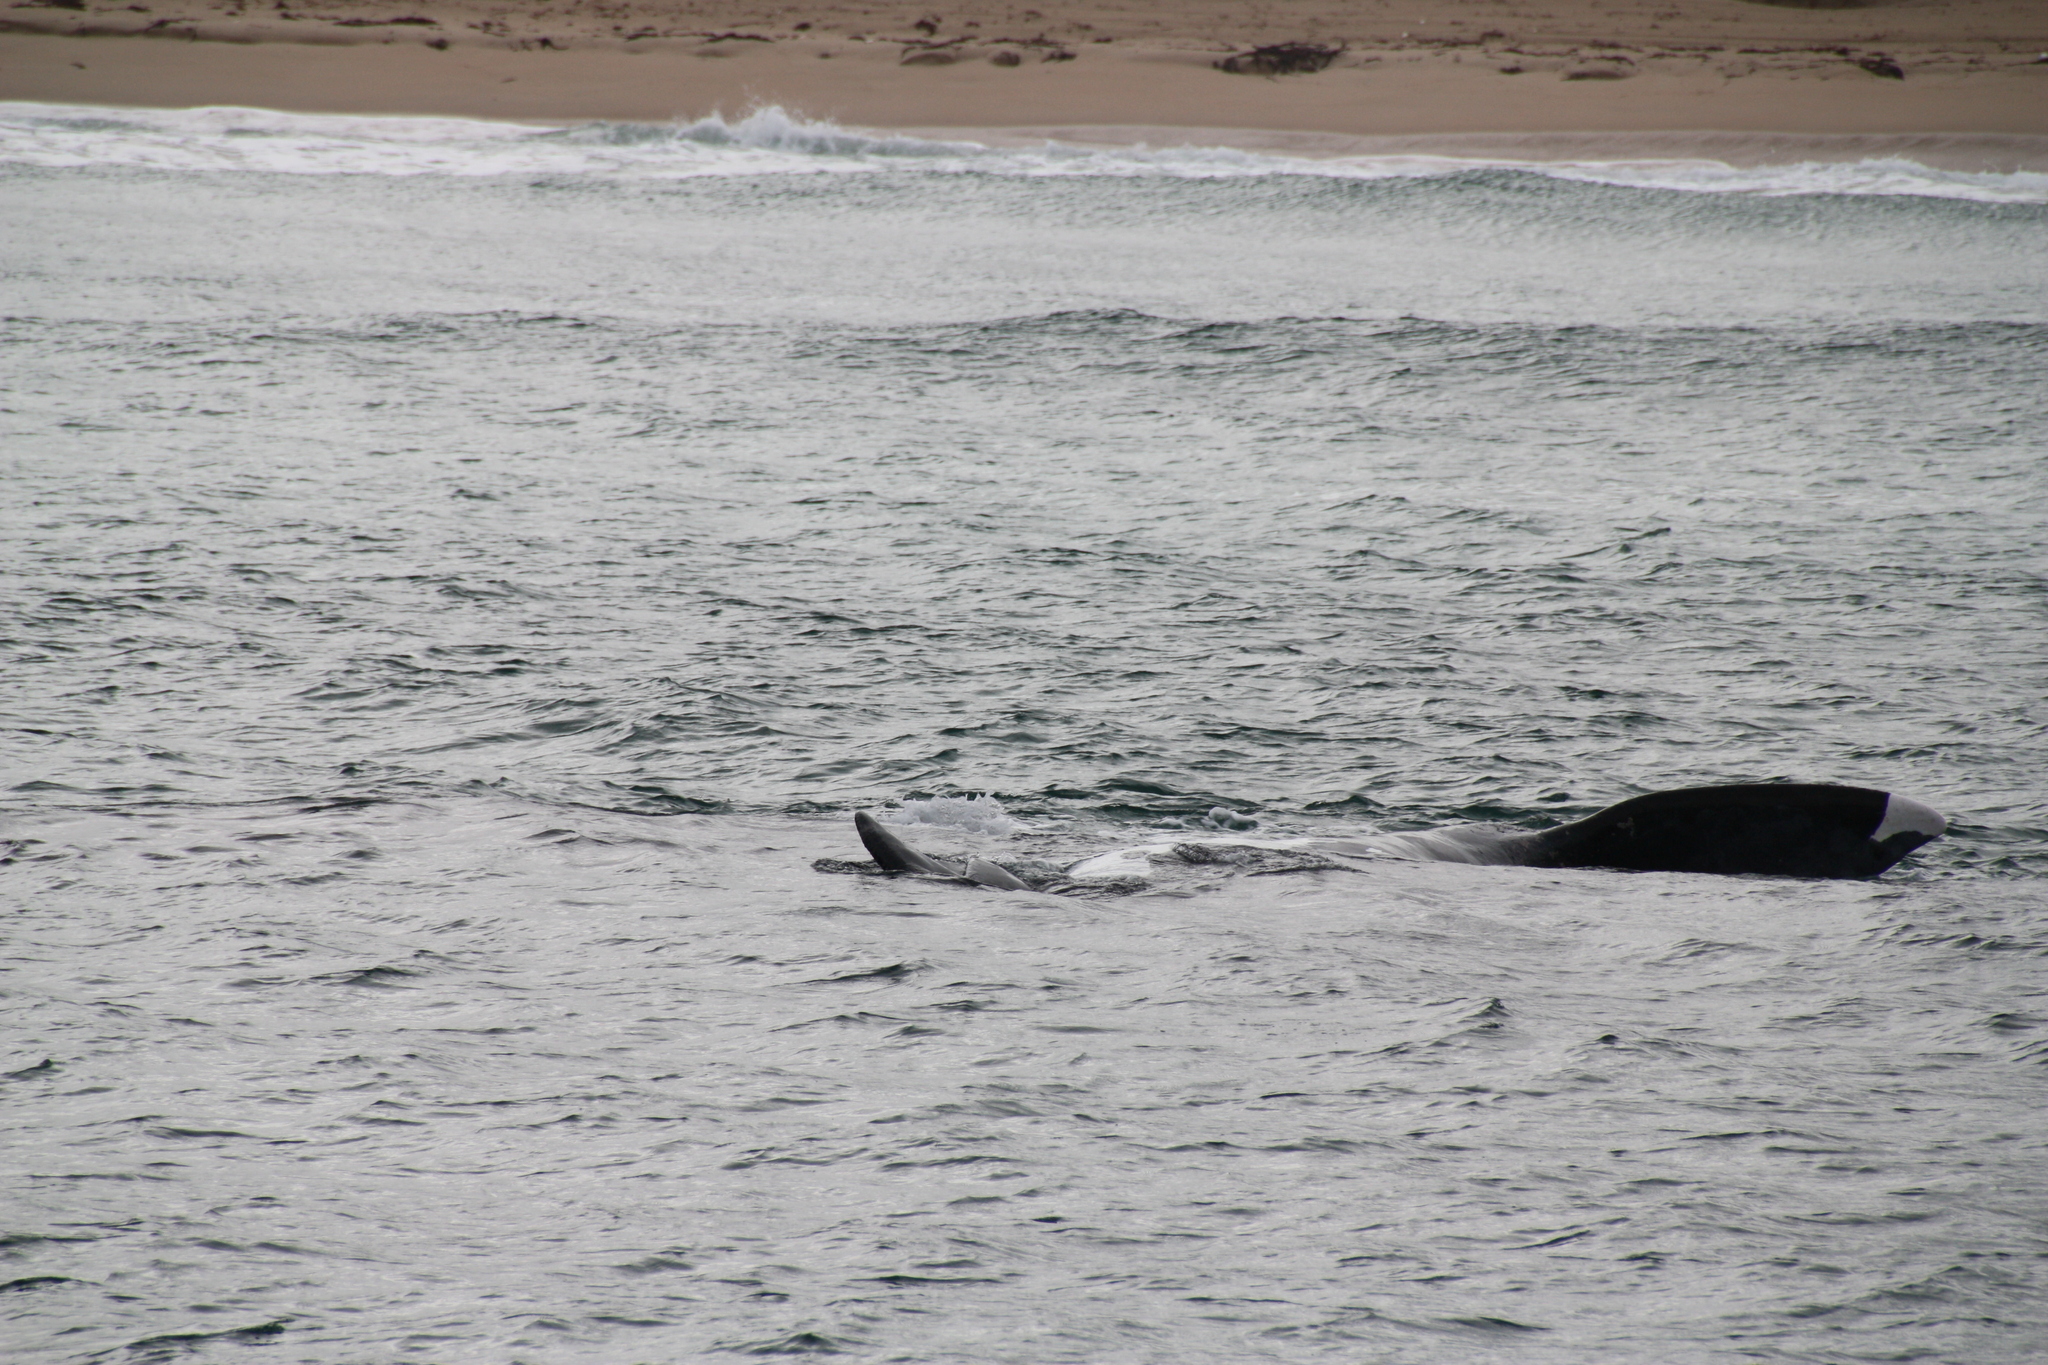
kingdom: Animalia
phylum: Chordata
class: Mammalia
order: Cetacea
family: Balaenidae
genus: Eubalaena
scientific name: Eubalaena australis
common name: Southern right whale
